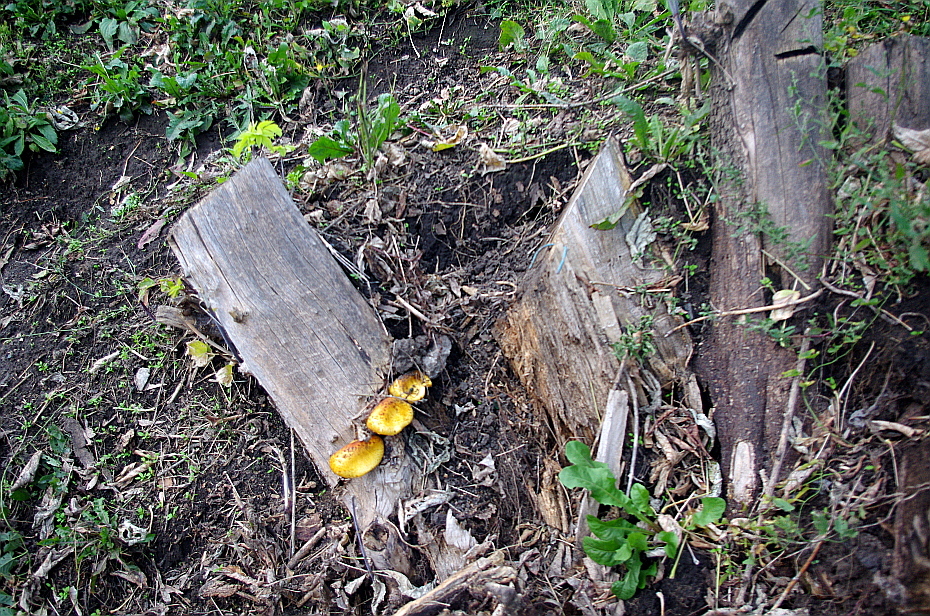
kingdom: Fungi
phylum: Basidiomycota
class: Agaricomycetes
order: Agaricales
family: Strophariaceae
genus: Pholiota
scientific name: Pholiota aurivella
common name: Golden scalycap
